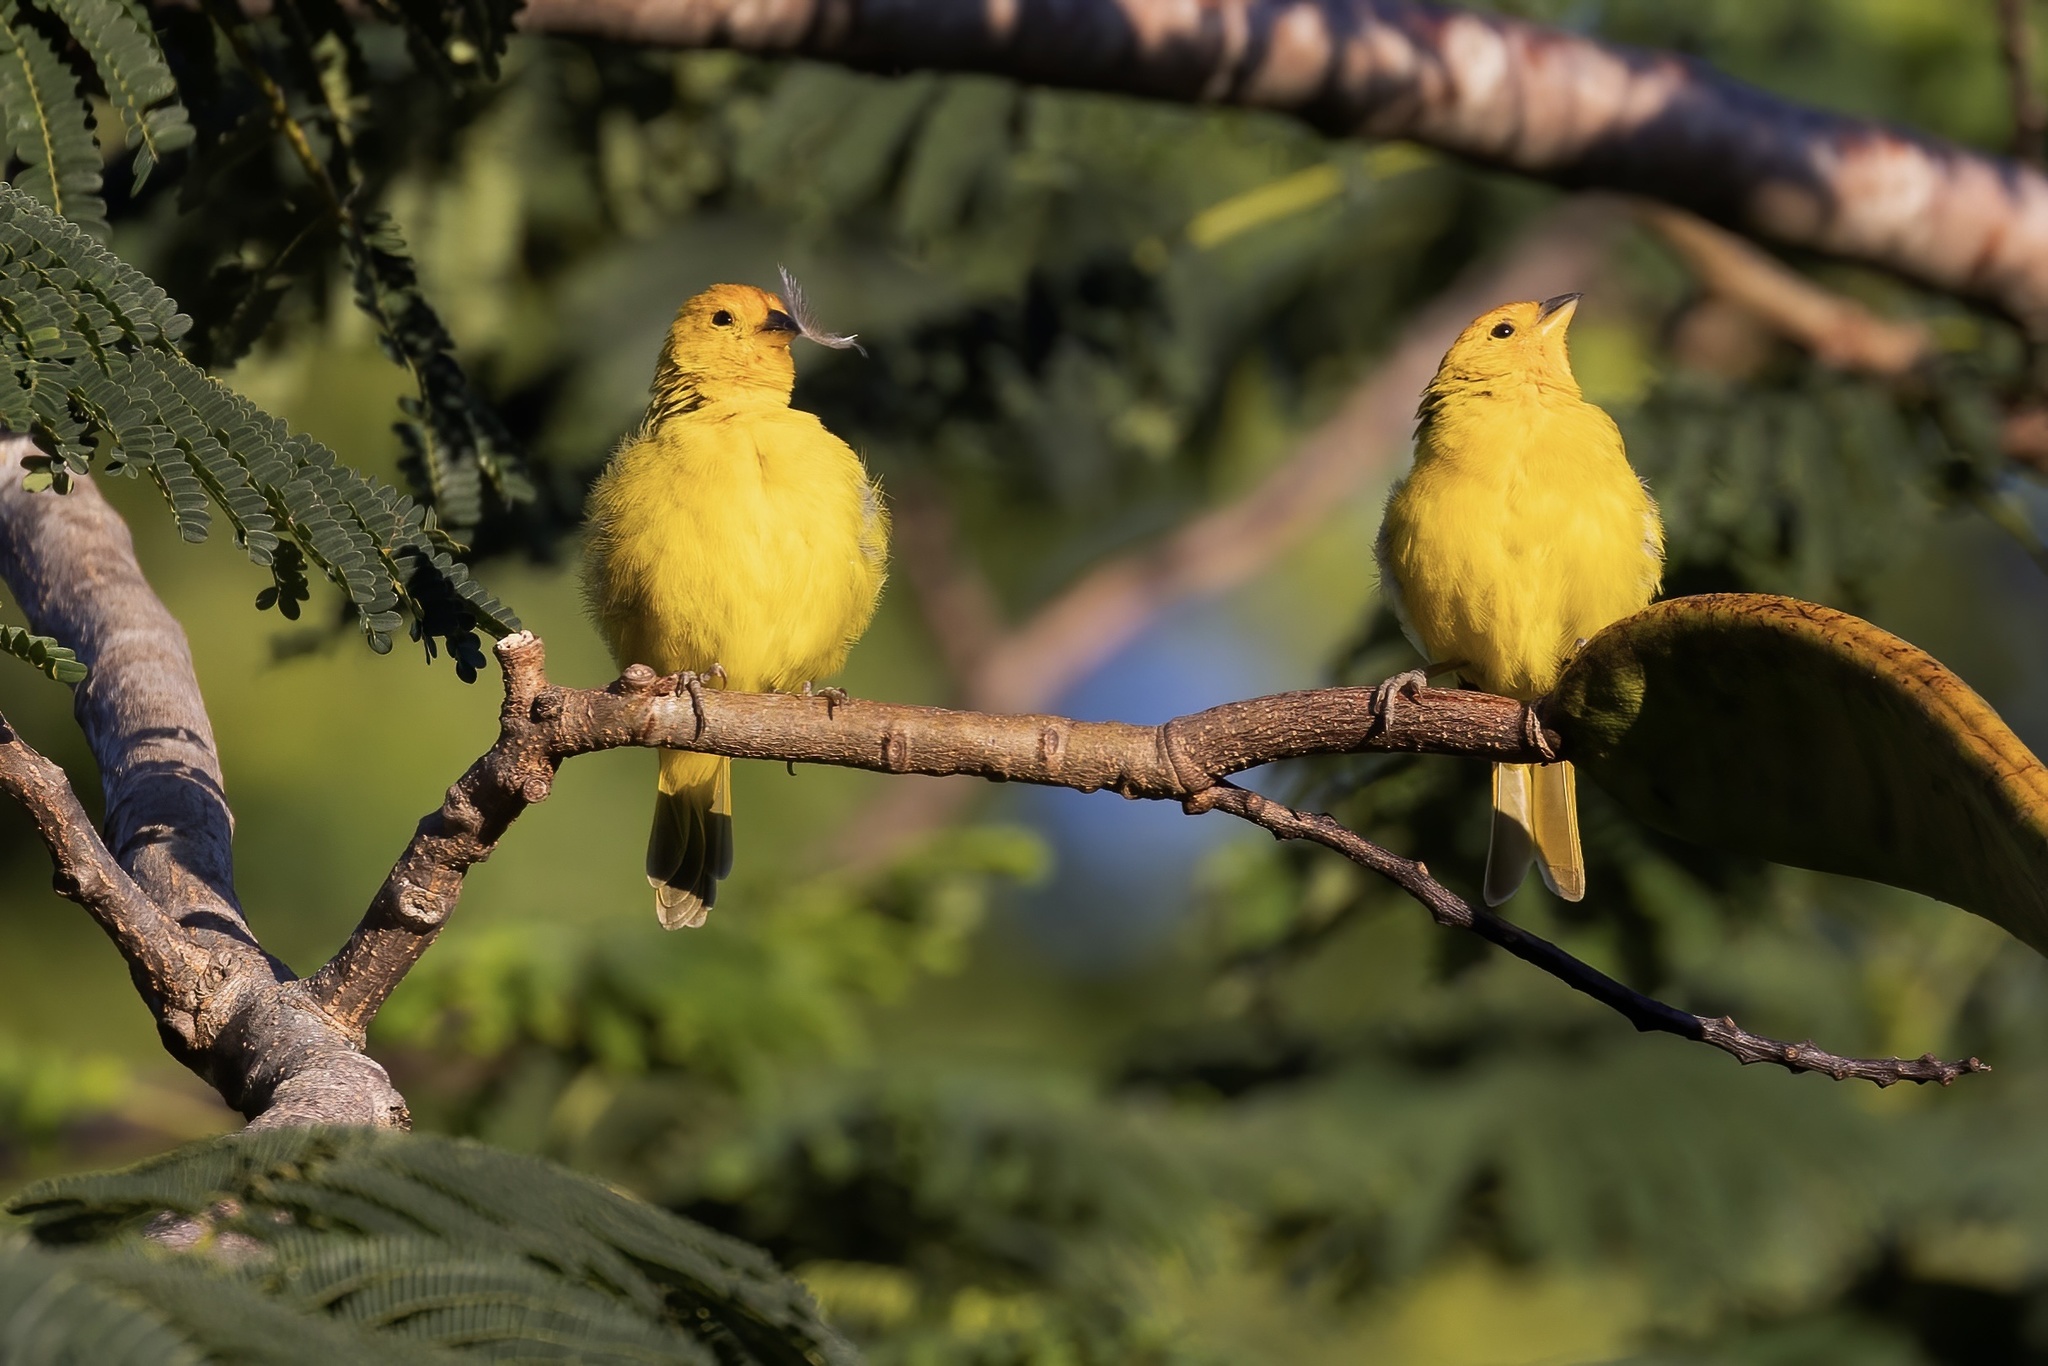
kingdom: Animalia
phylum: Chordata
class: Aves
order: Passeriformes
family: Thraupidae
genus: Sicalis
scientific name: Sicalis flaveola
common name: Saffron finch
